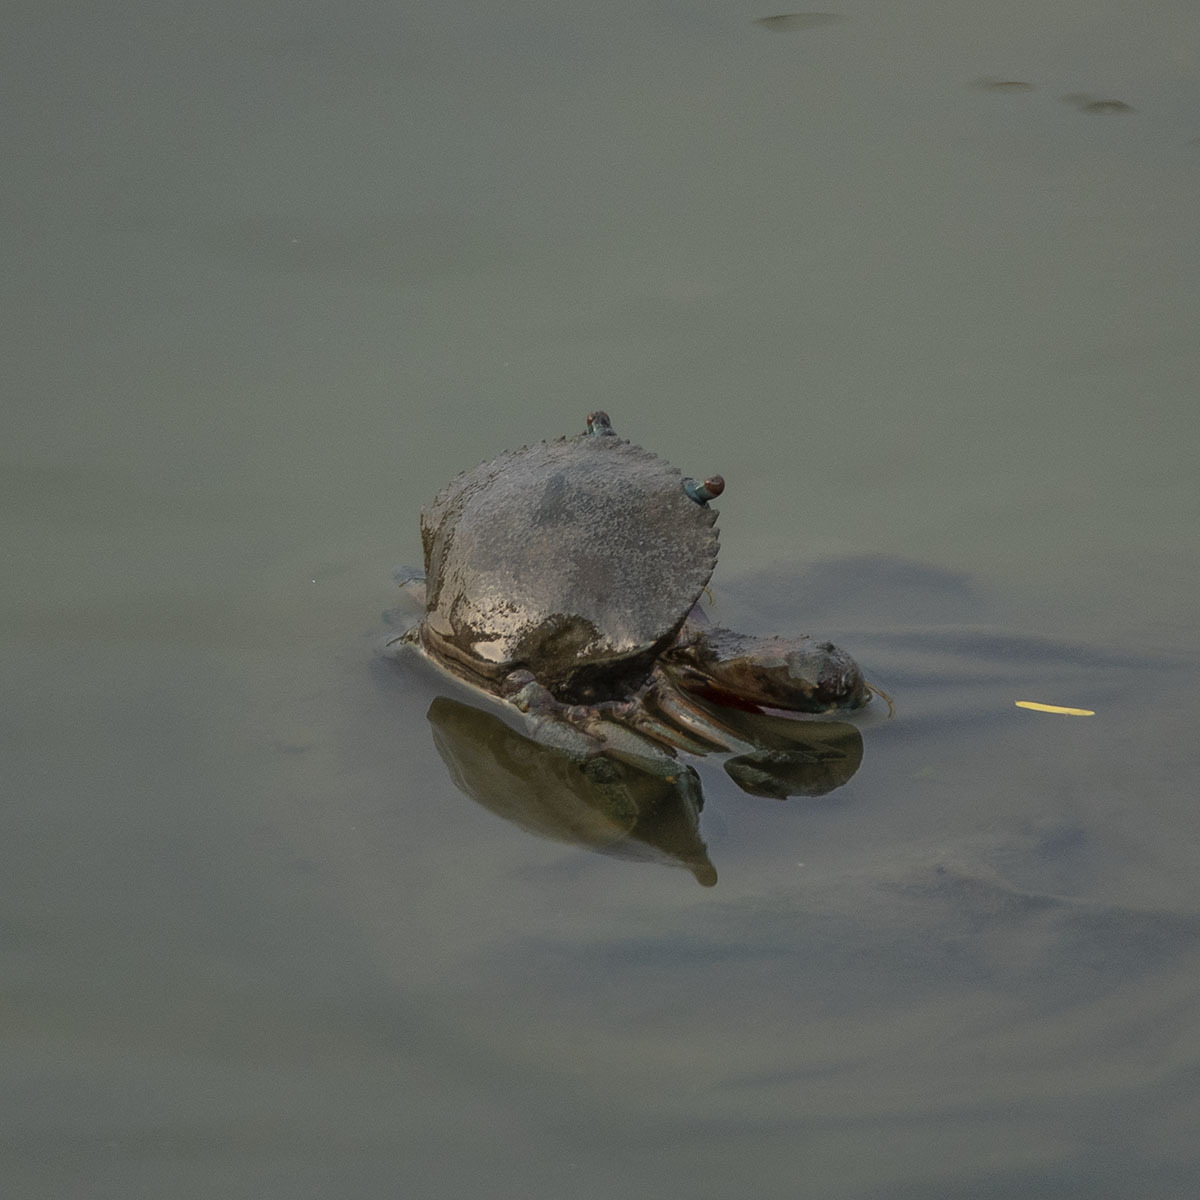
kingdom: Animalia
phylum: Arthropoda
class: Malacostraca
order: Decapoda
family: Portunidae
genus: Scylla
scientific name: Scylla serrata
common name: Giant mud crab
